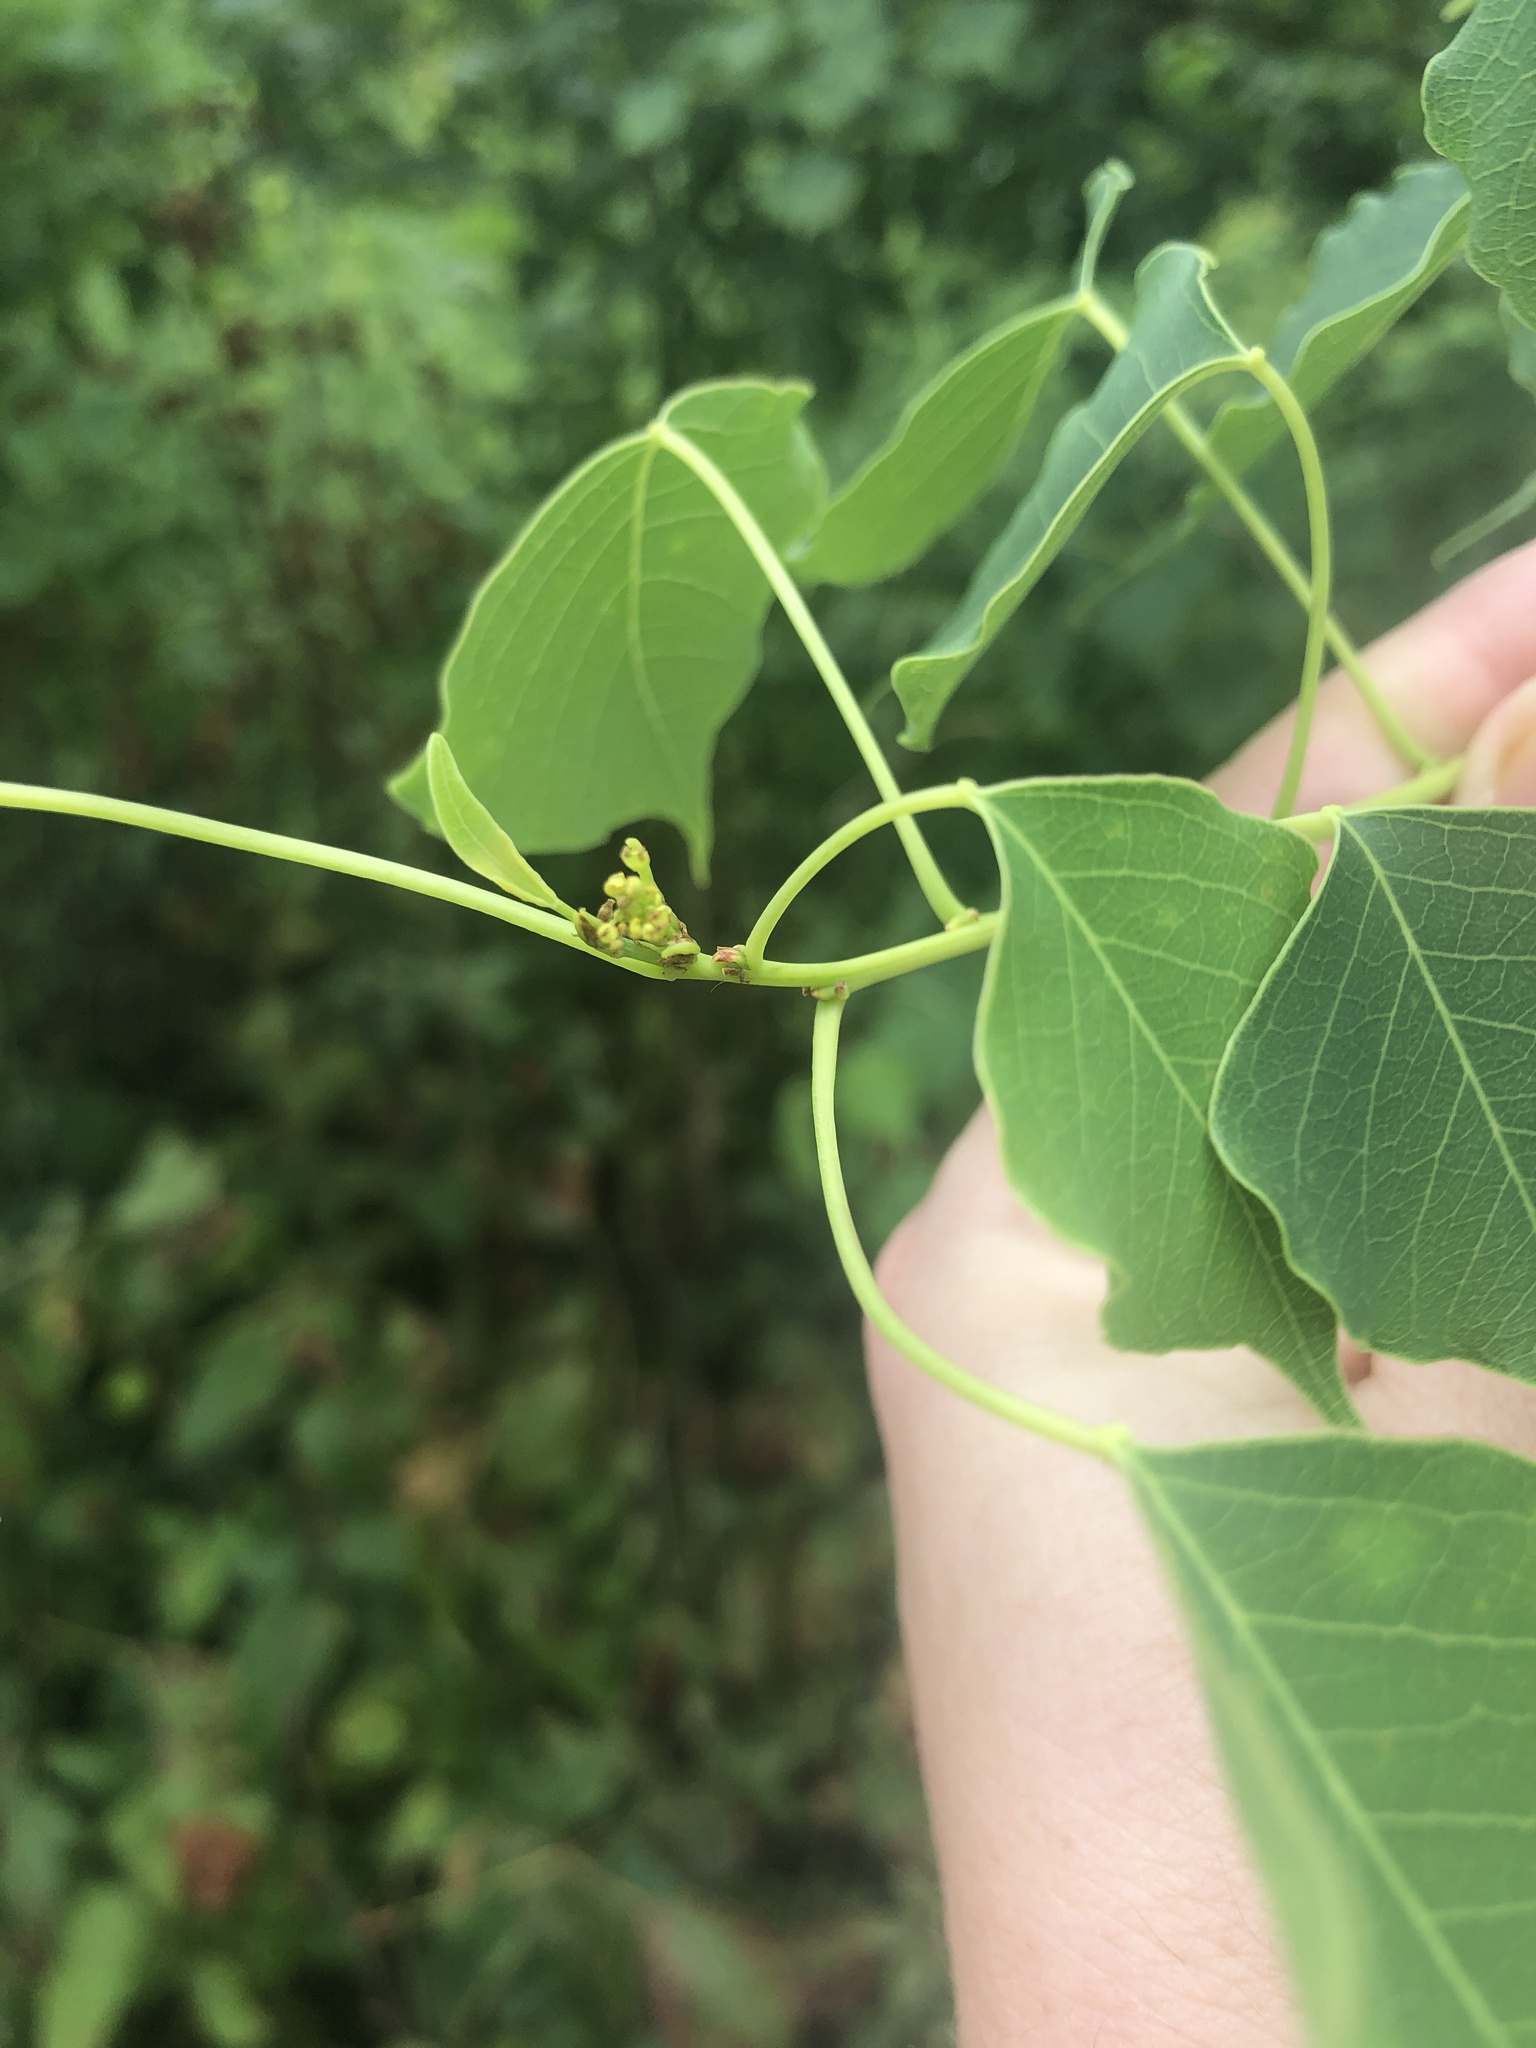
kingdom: Plantae
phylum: Tracheophyta
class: Magnoliopsida
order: Malpighiales
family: Euphorbiaceae
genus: Triadica
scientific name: Triadica sebifera
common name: Chinese tallow
